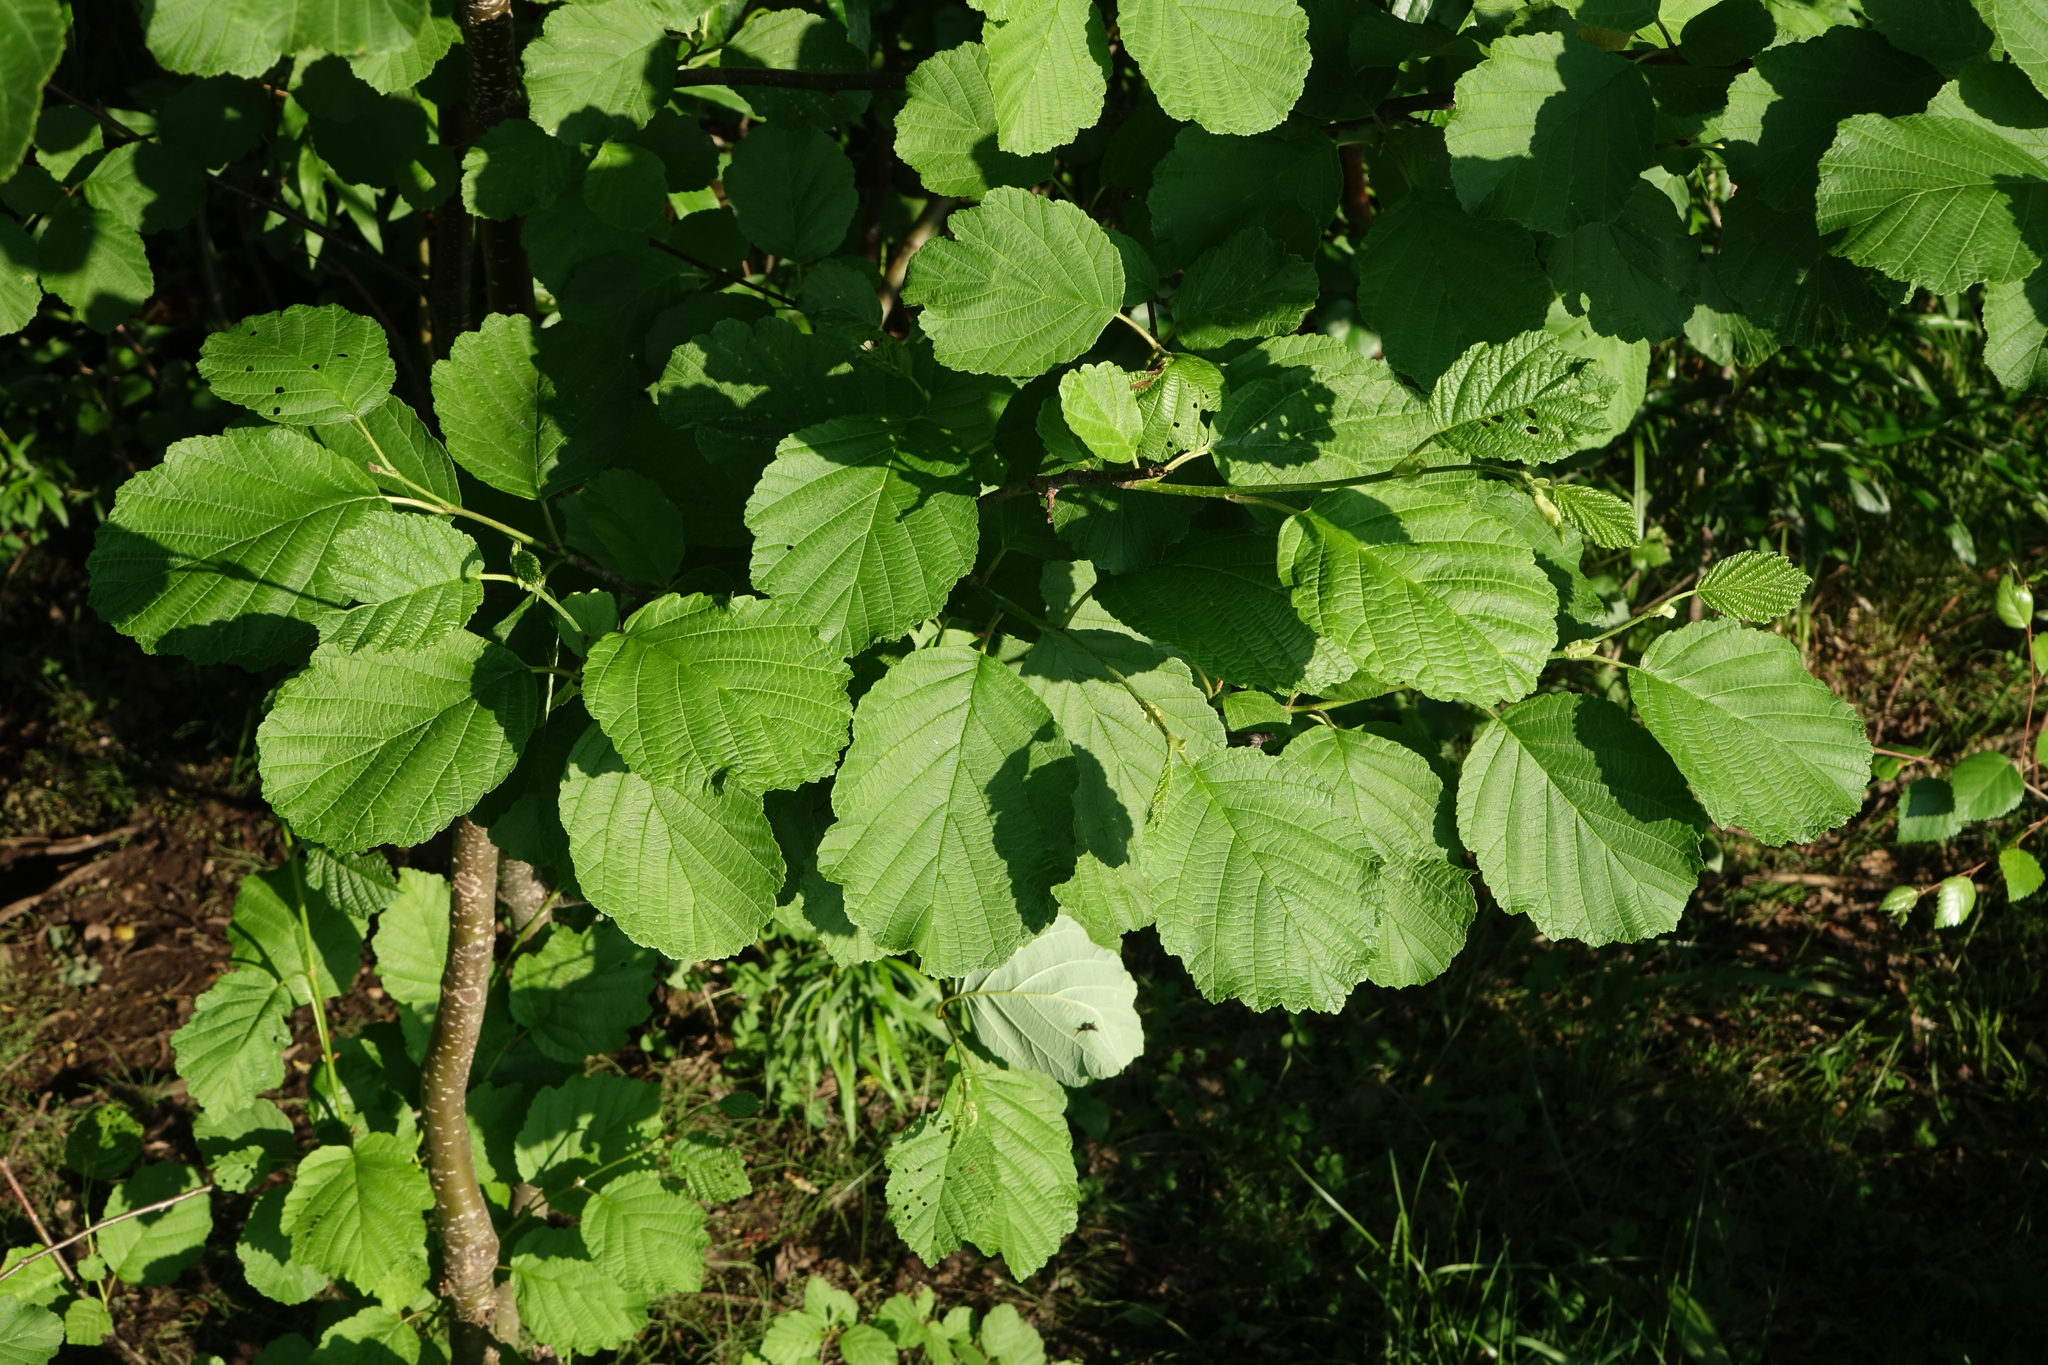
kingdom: Plantae
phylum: Tracheophyta
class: Magnoliopsida
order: Fagales
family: Betulaceae
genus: Alnus
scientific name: Alnus hirsuta
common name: Manchurian alder
